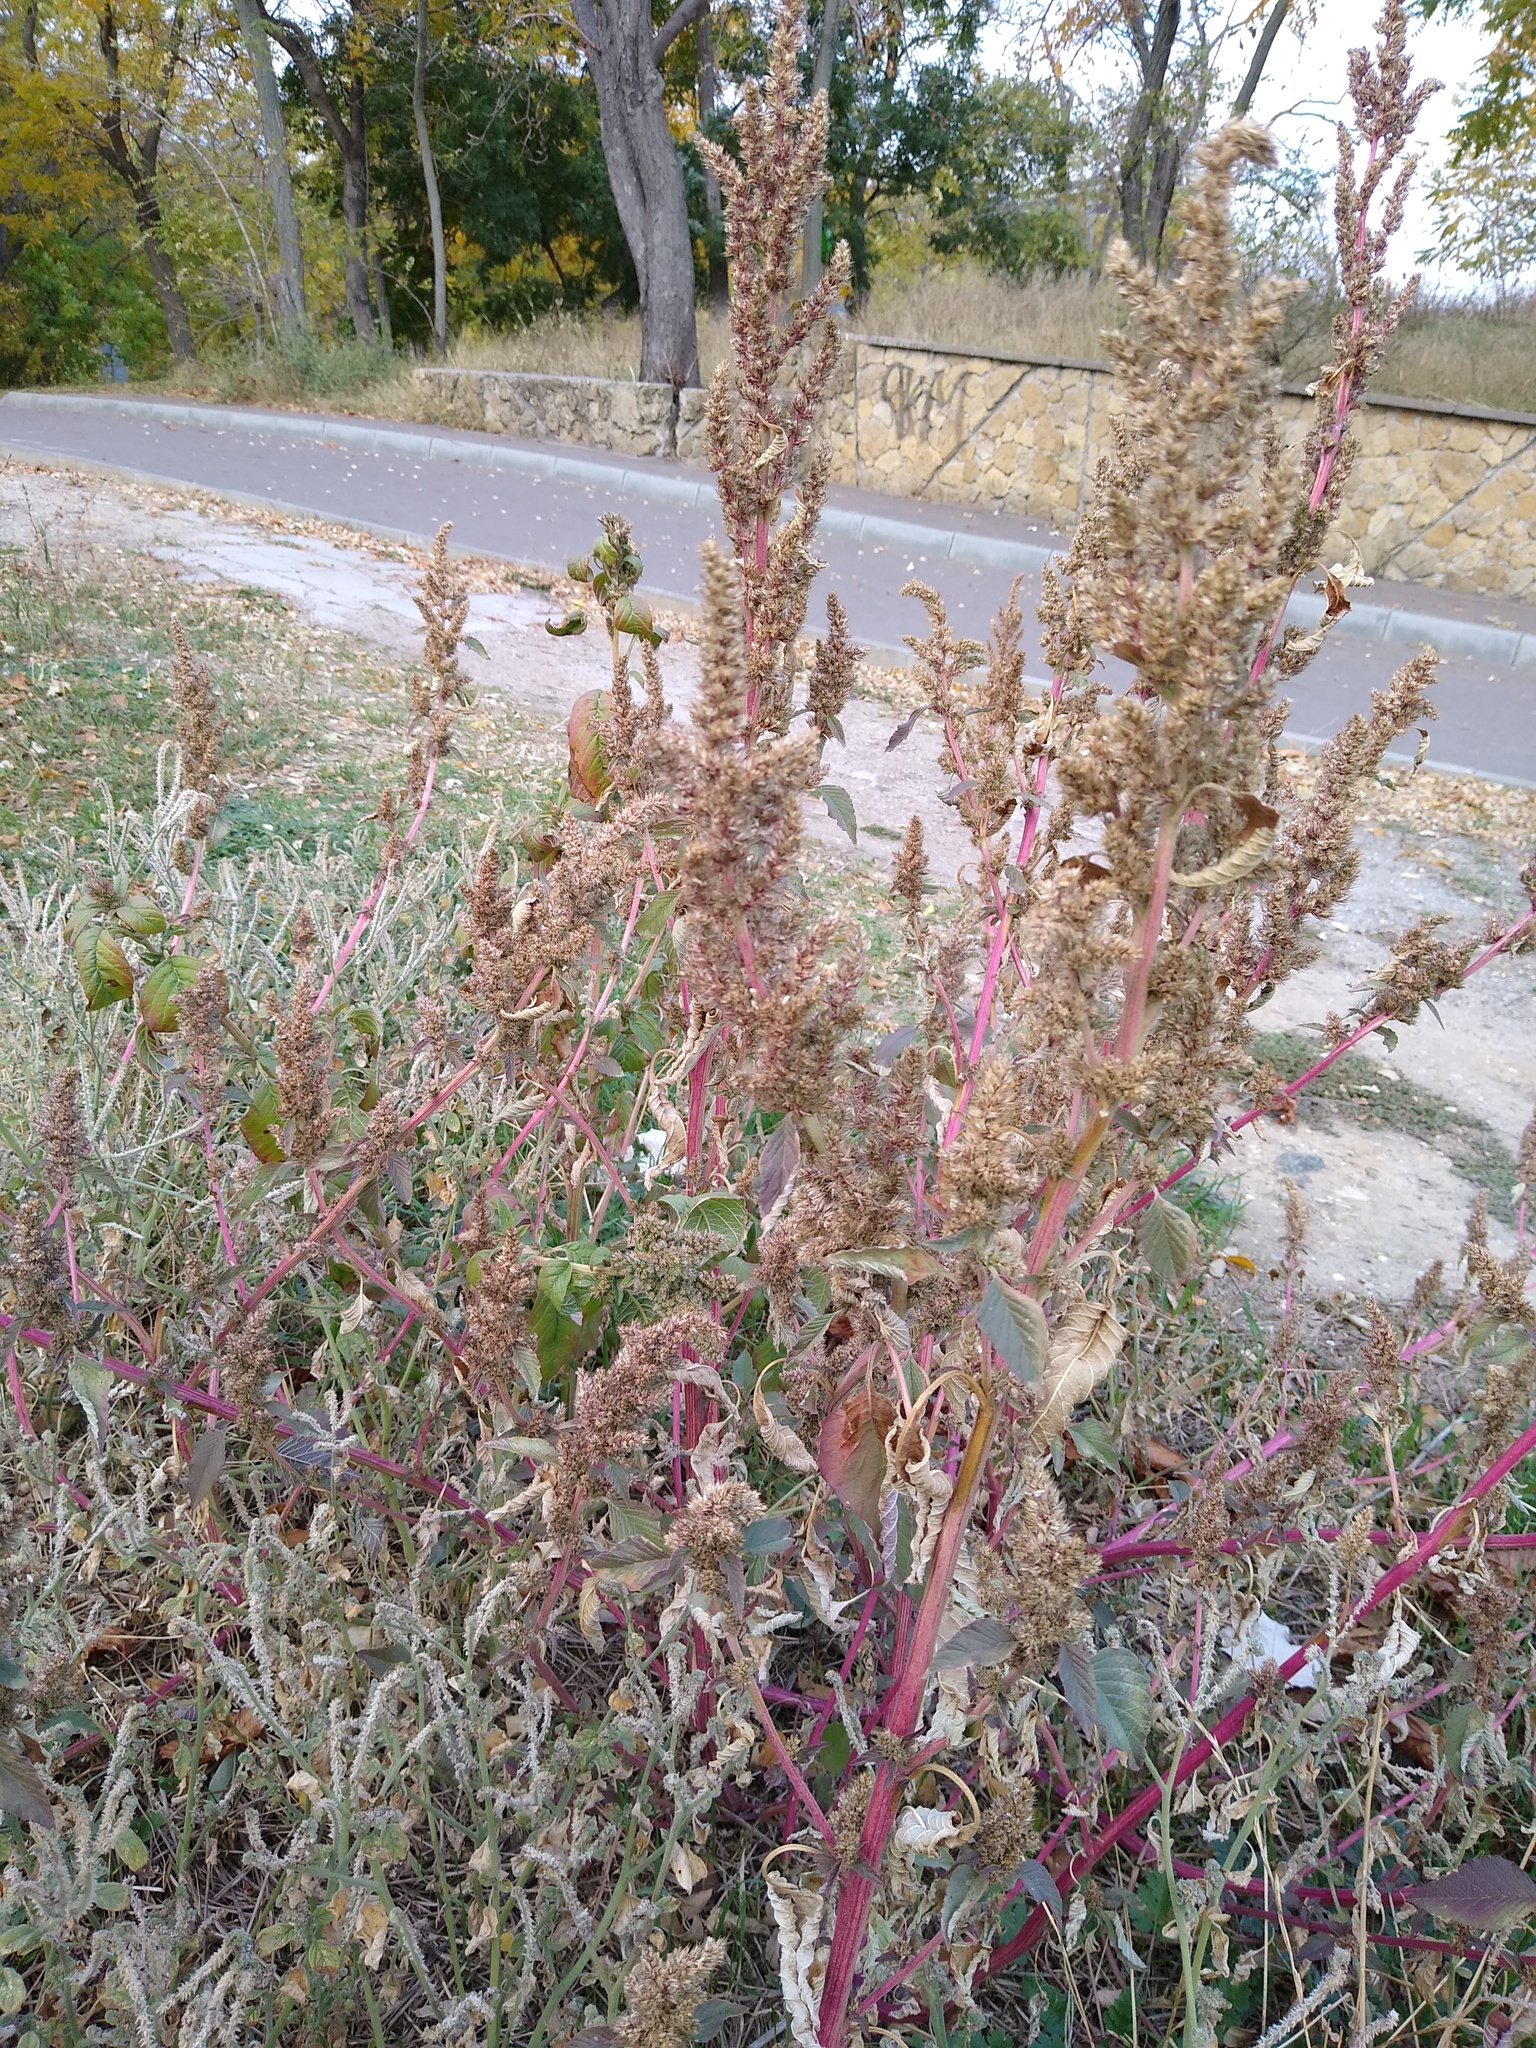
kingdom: Plantae
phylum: Tracheophyta
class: Magnoliopsida
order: Caryophyllales
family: Amaranthaceae
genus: Amaranthus
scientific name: Amaranthus retroflexus
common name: Redroot amaranth
